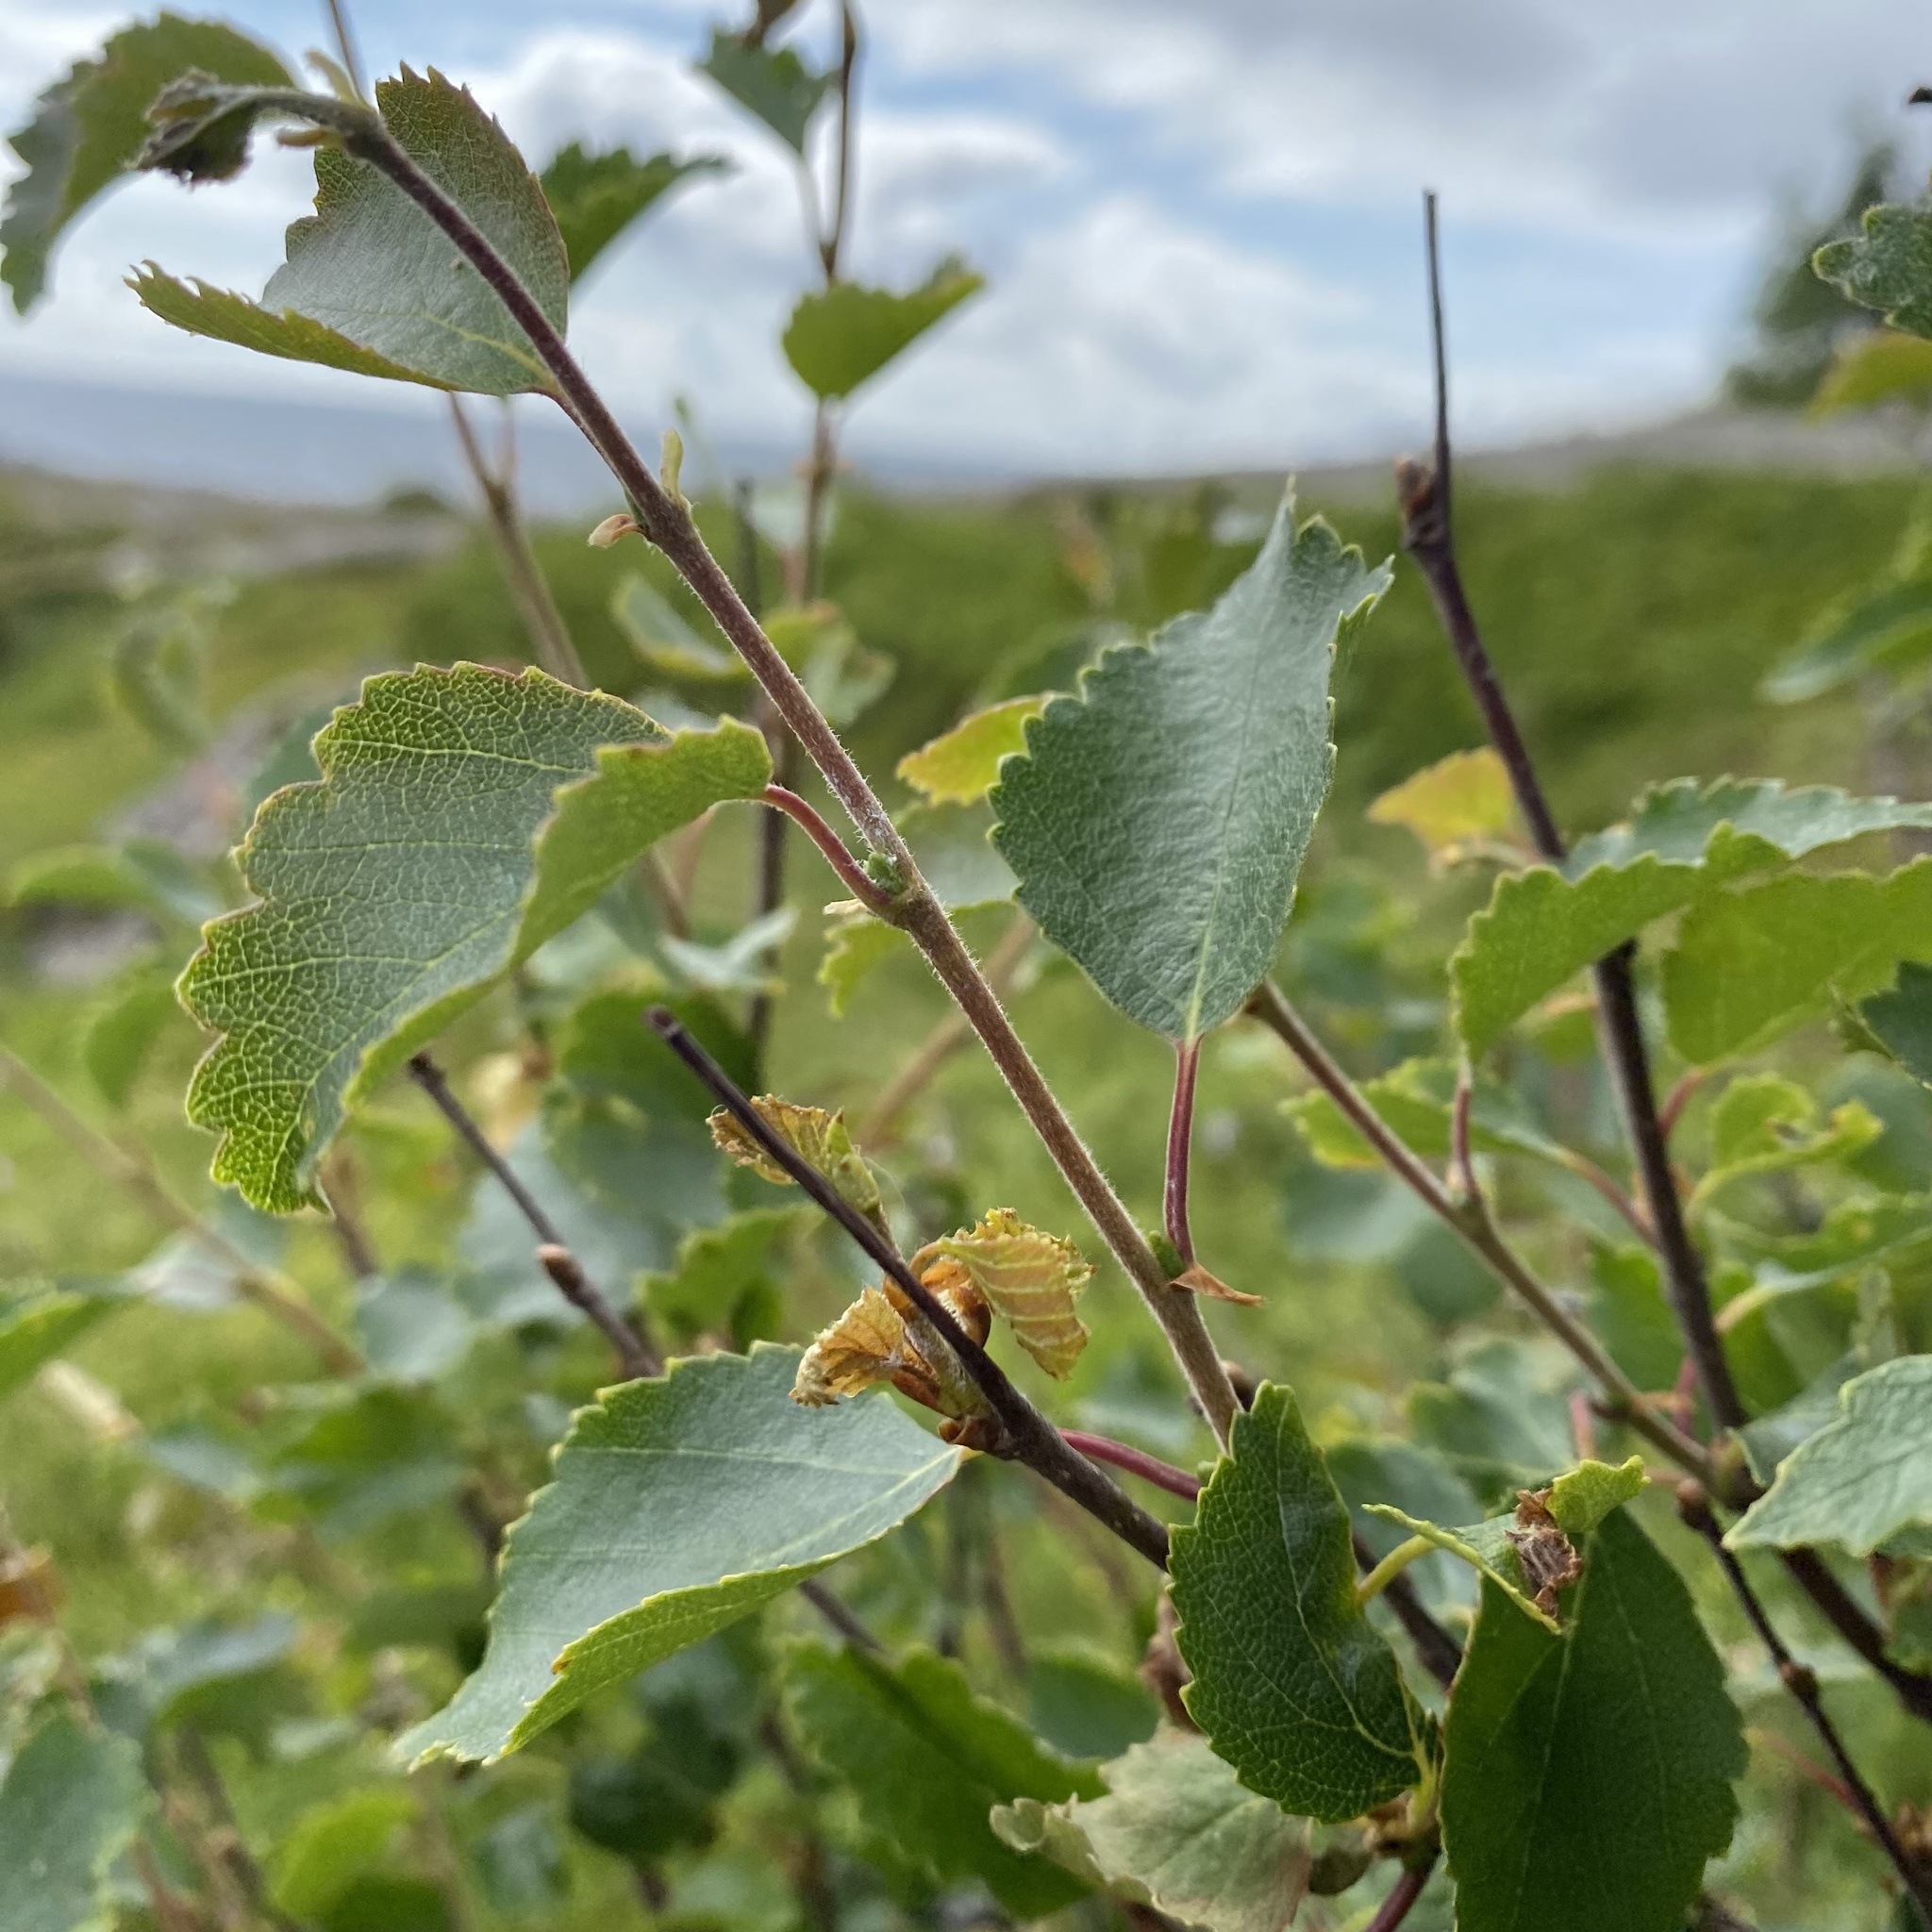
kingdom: Plantae
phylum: Tracheophyta
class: Magnoliopsida
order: Fagales
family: Betulaceae
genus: Betula
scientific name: Betula pubescens
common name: Downy birch
